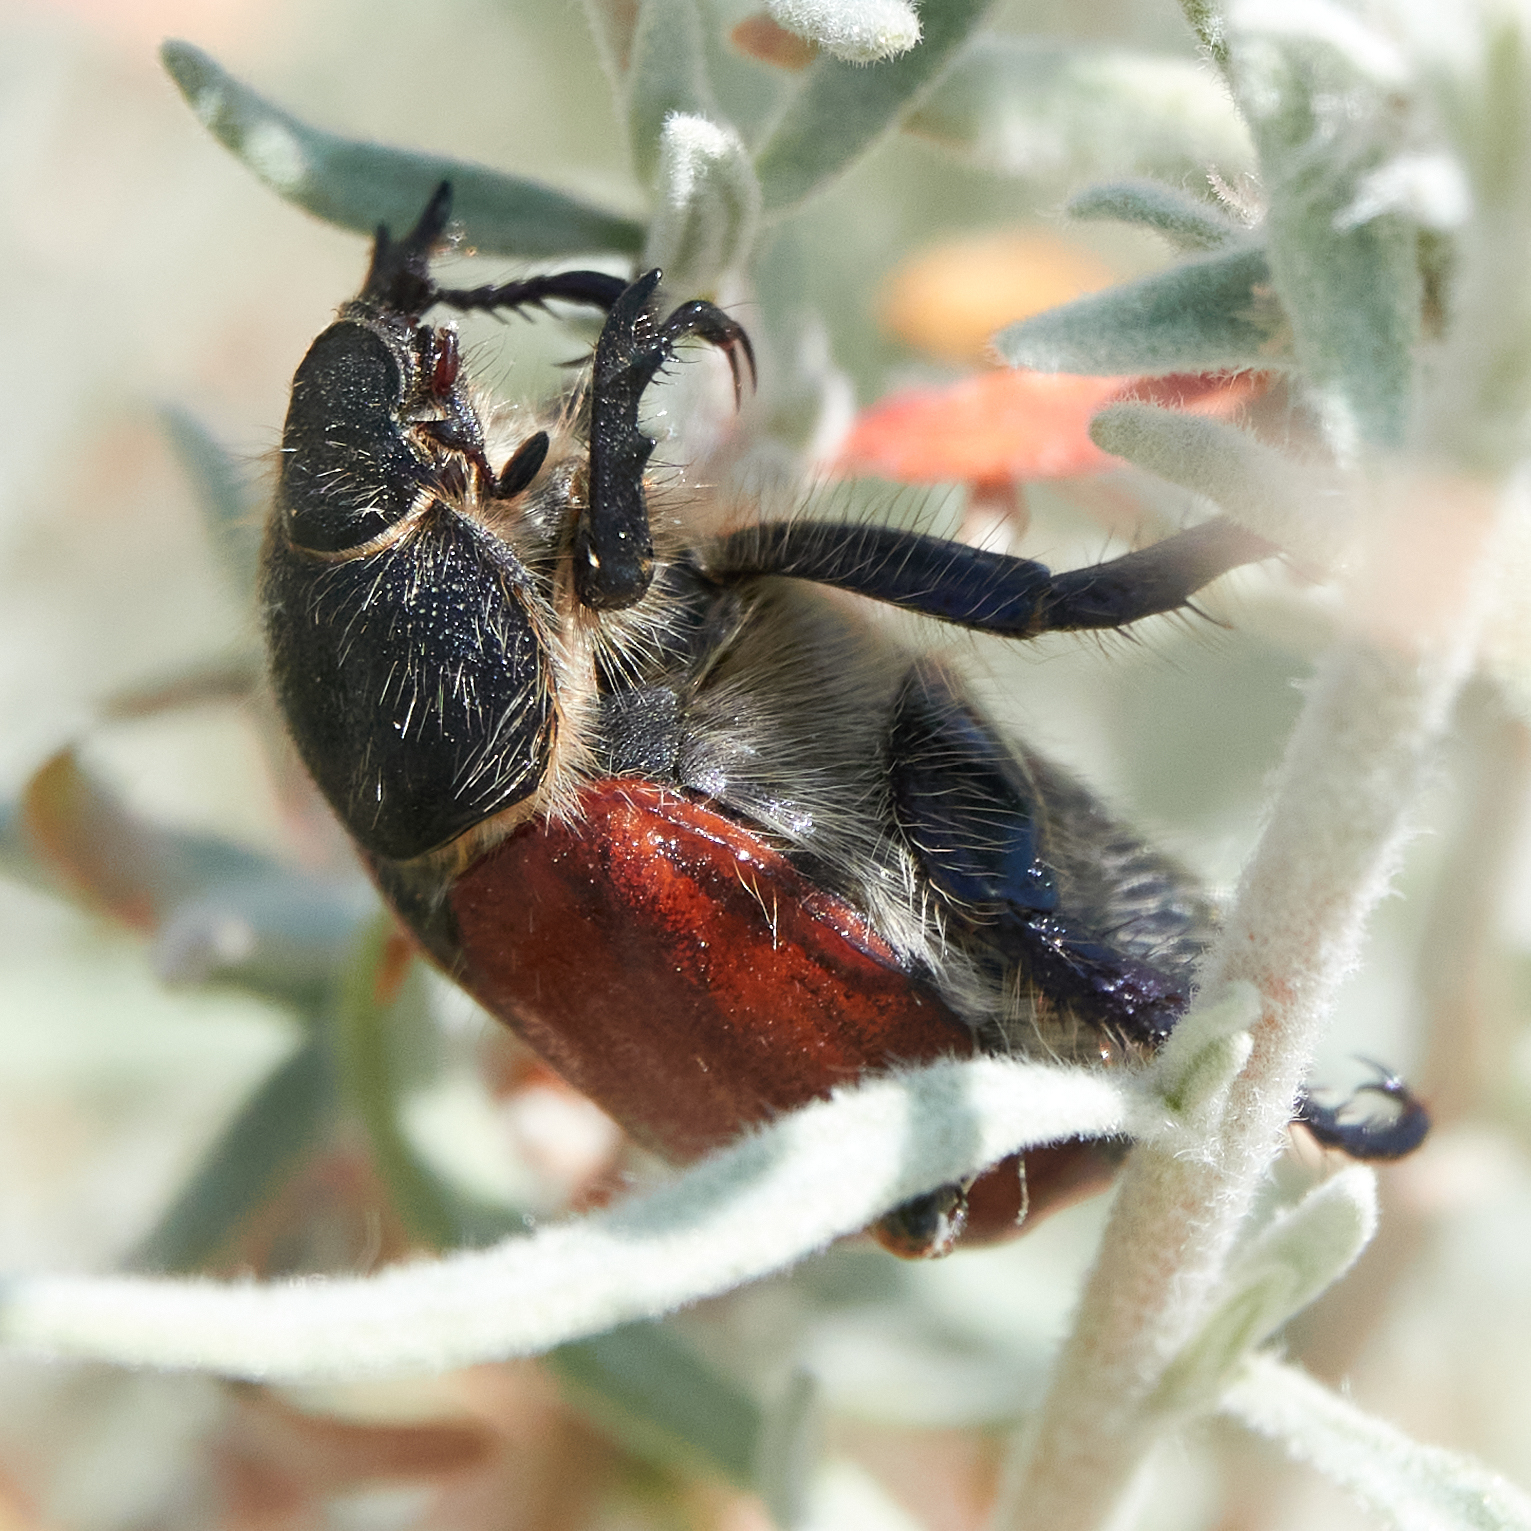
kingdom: Animalia
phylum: Arthropoda
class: Insecta
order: Coleoptera
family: Scarabaeidae
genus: Paracotalpa
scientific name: Paracotalpa ursina
